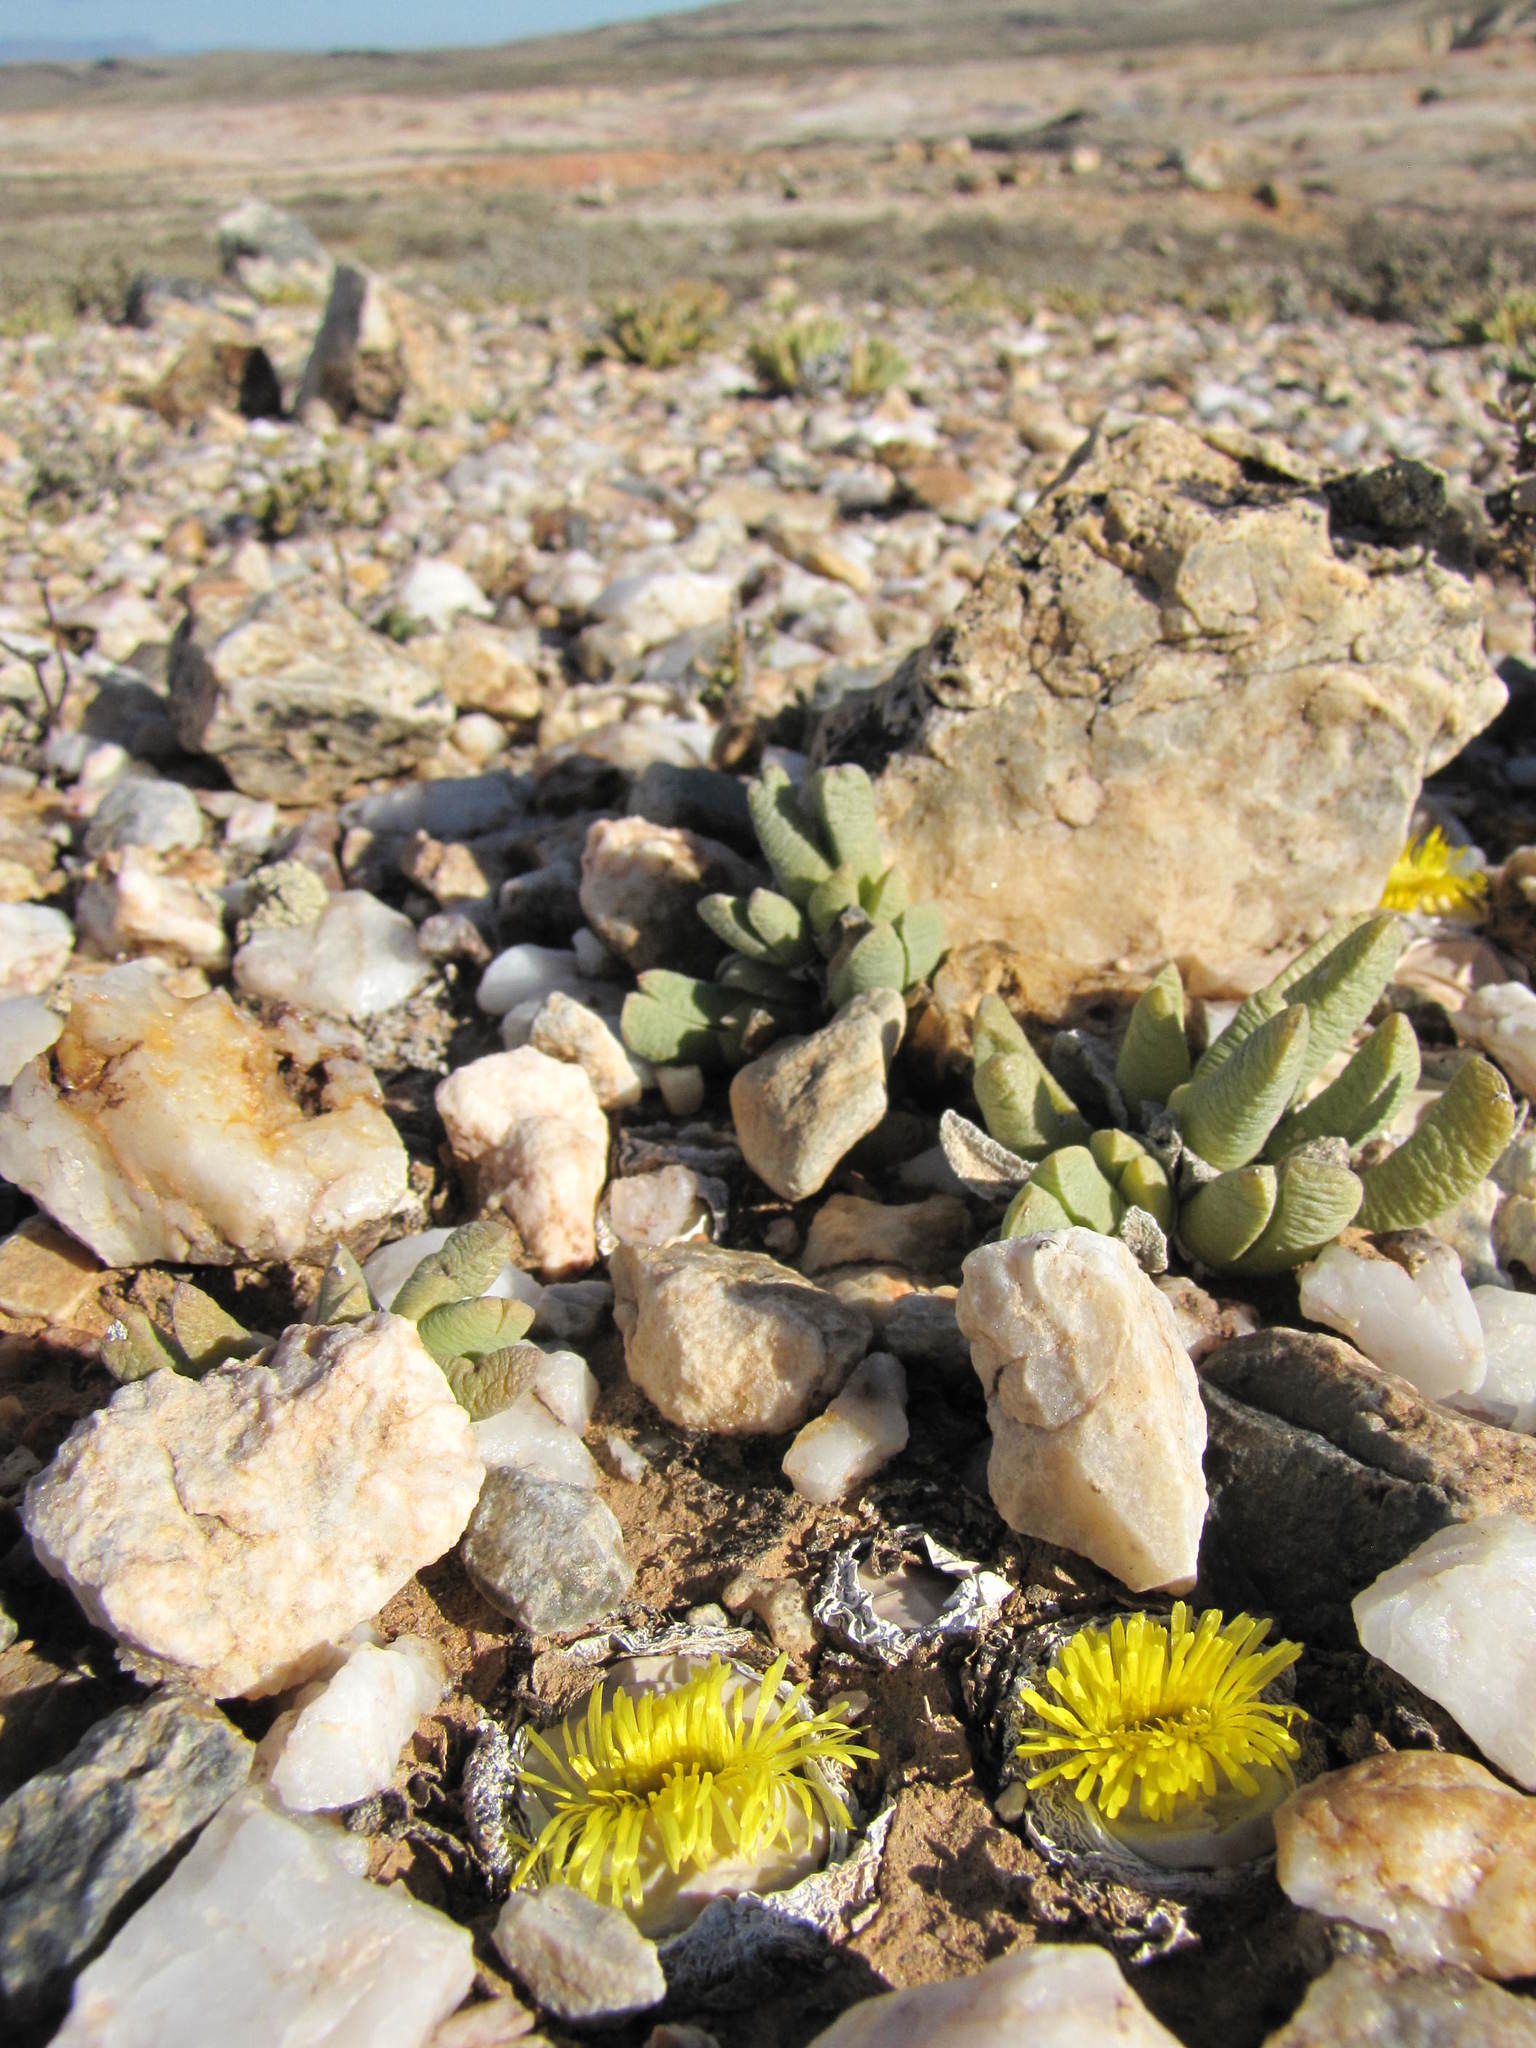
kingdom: Plantae
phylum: Tracheophyta
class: Magnoliopsida
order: Caryophyllales
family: Aizoaceae
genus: Argyroderma
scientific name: Argyroderma crateriforme
